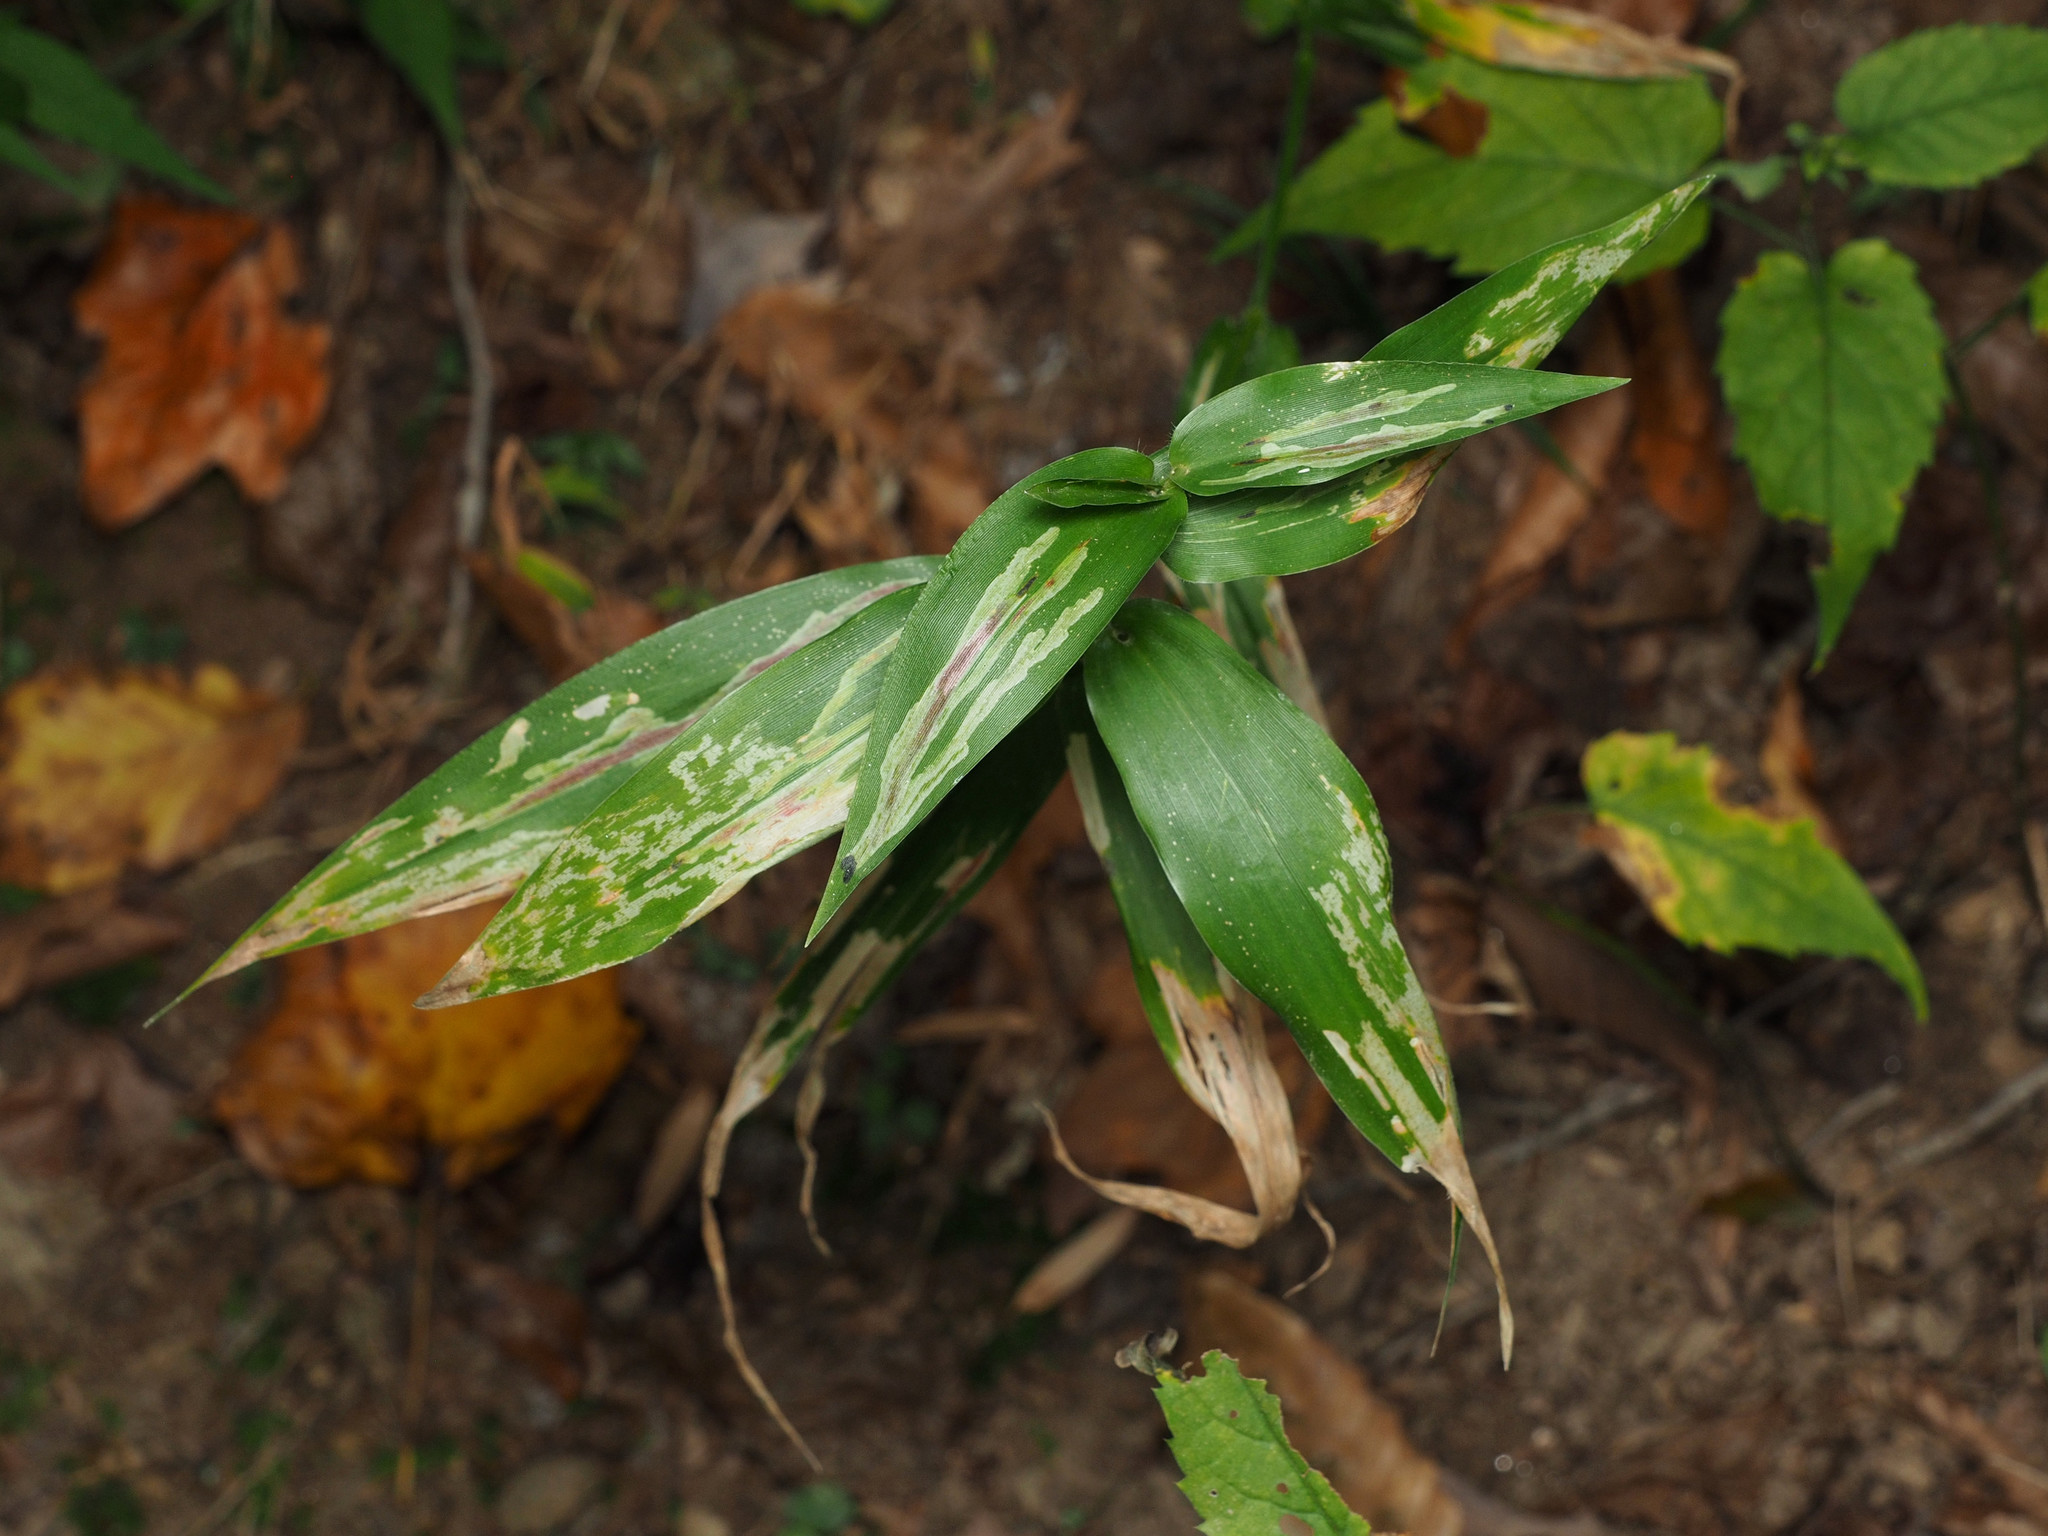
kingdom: Animalia
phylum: Arthropoda
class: Insecta
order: Diptera
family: Agromyzidae
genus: Cerodontha
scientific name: Cerodontha angulata
